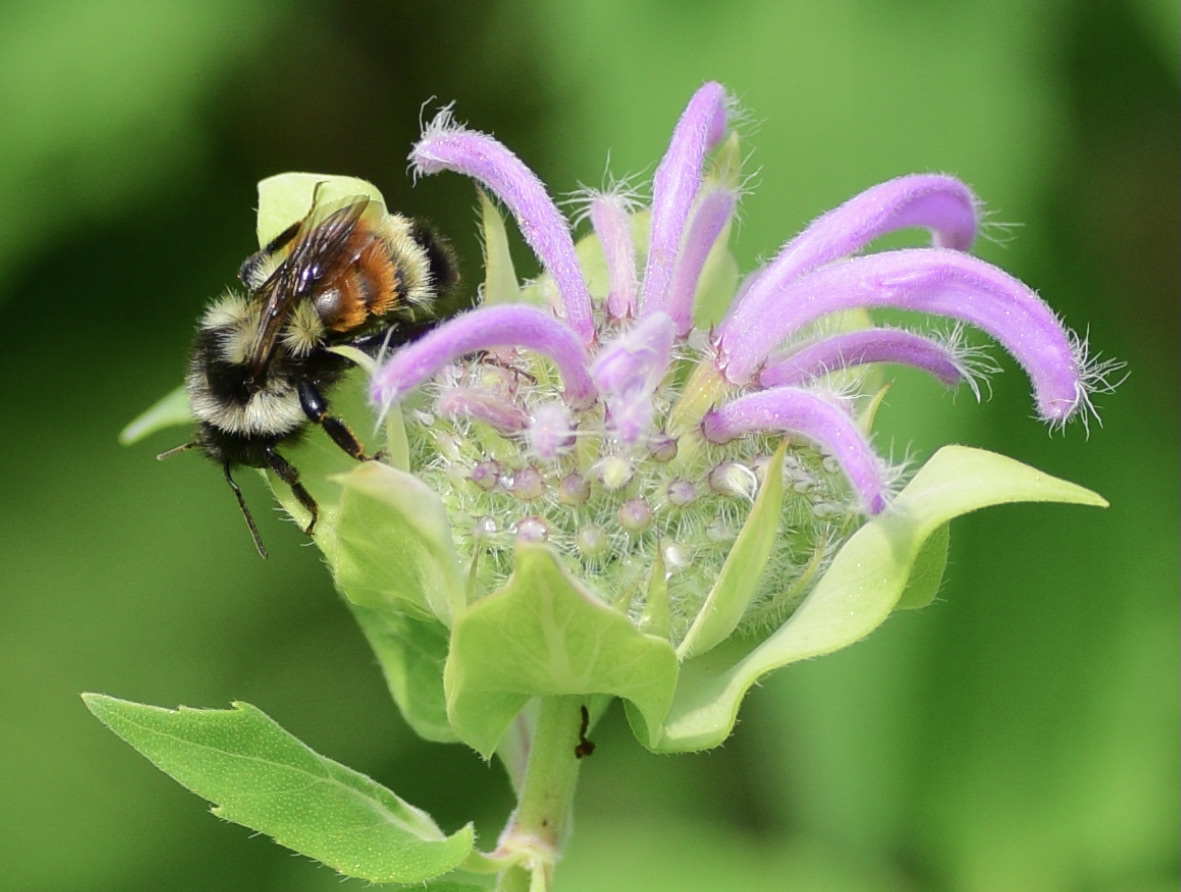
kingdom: Animalia
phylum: Arthropoda
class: Insecta
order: Hymenoptera
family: Apidae
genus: Bombus
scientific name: Bombus ternarius
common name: Tri-colored bumble bee
